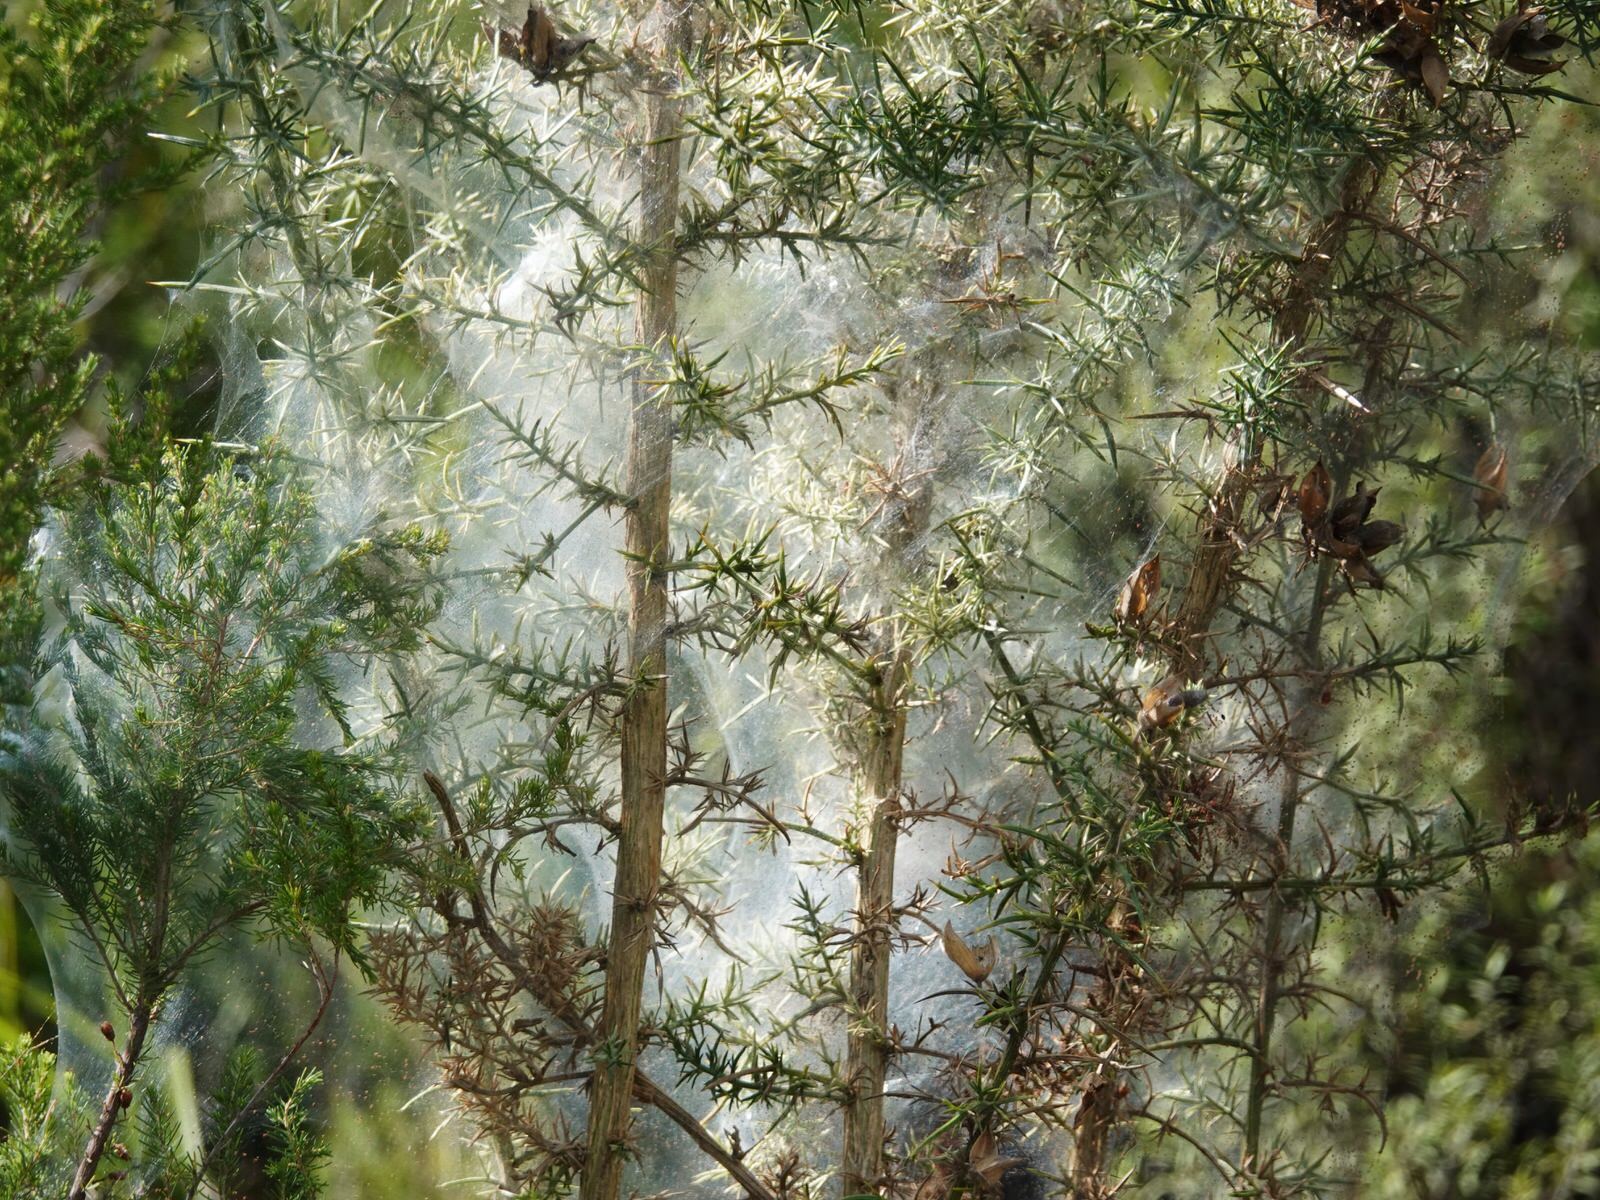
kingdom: Animalia
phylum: Arthropoda
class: Arachnida
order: Trombidiformes
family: Tetranychidae
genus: Tetranychus
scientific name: Tetranychus lintearius
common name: Gorse spider mite
